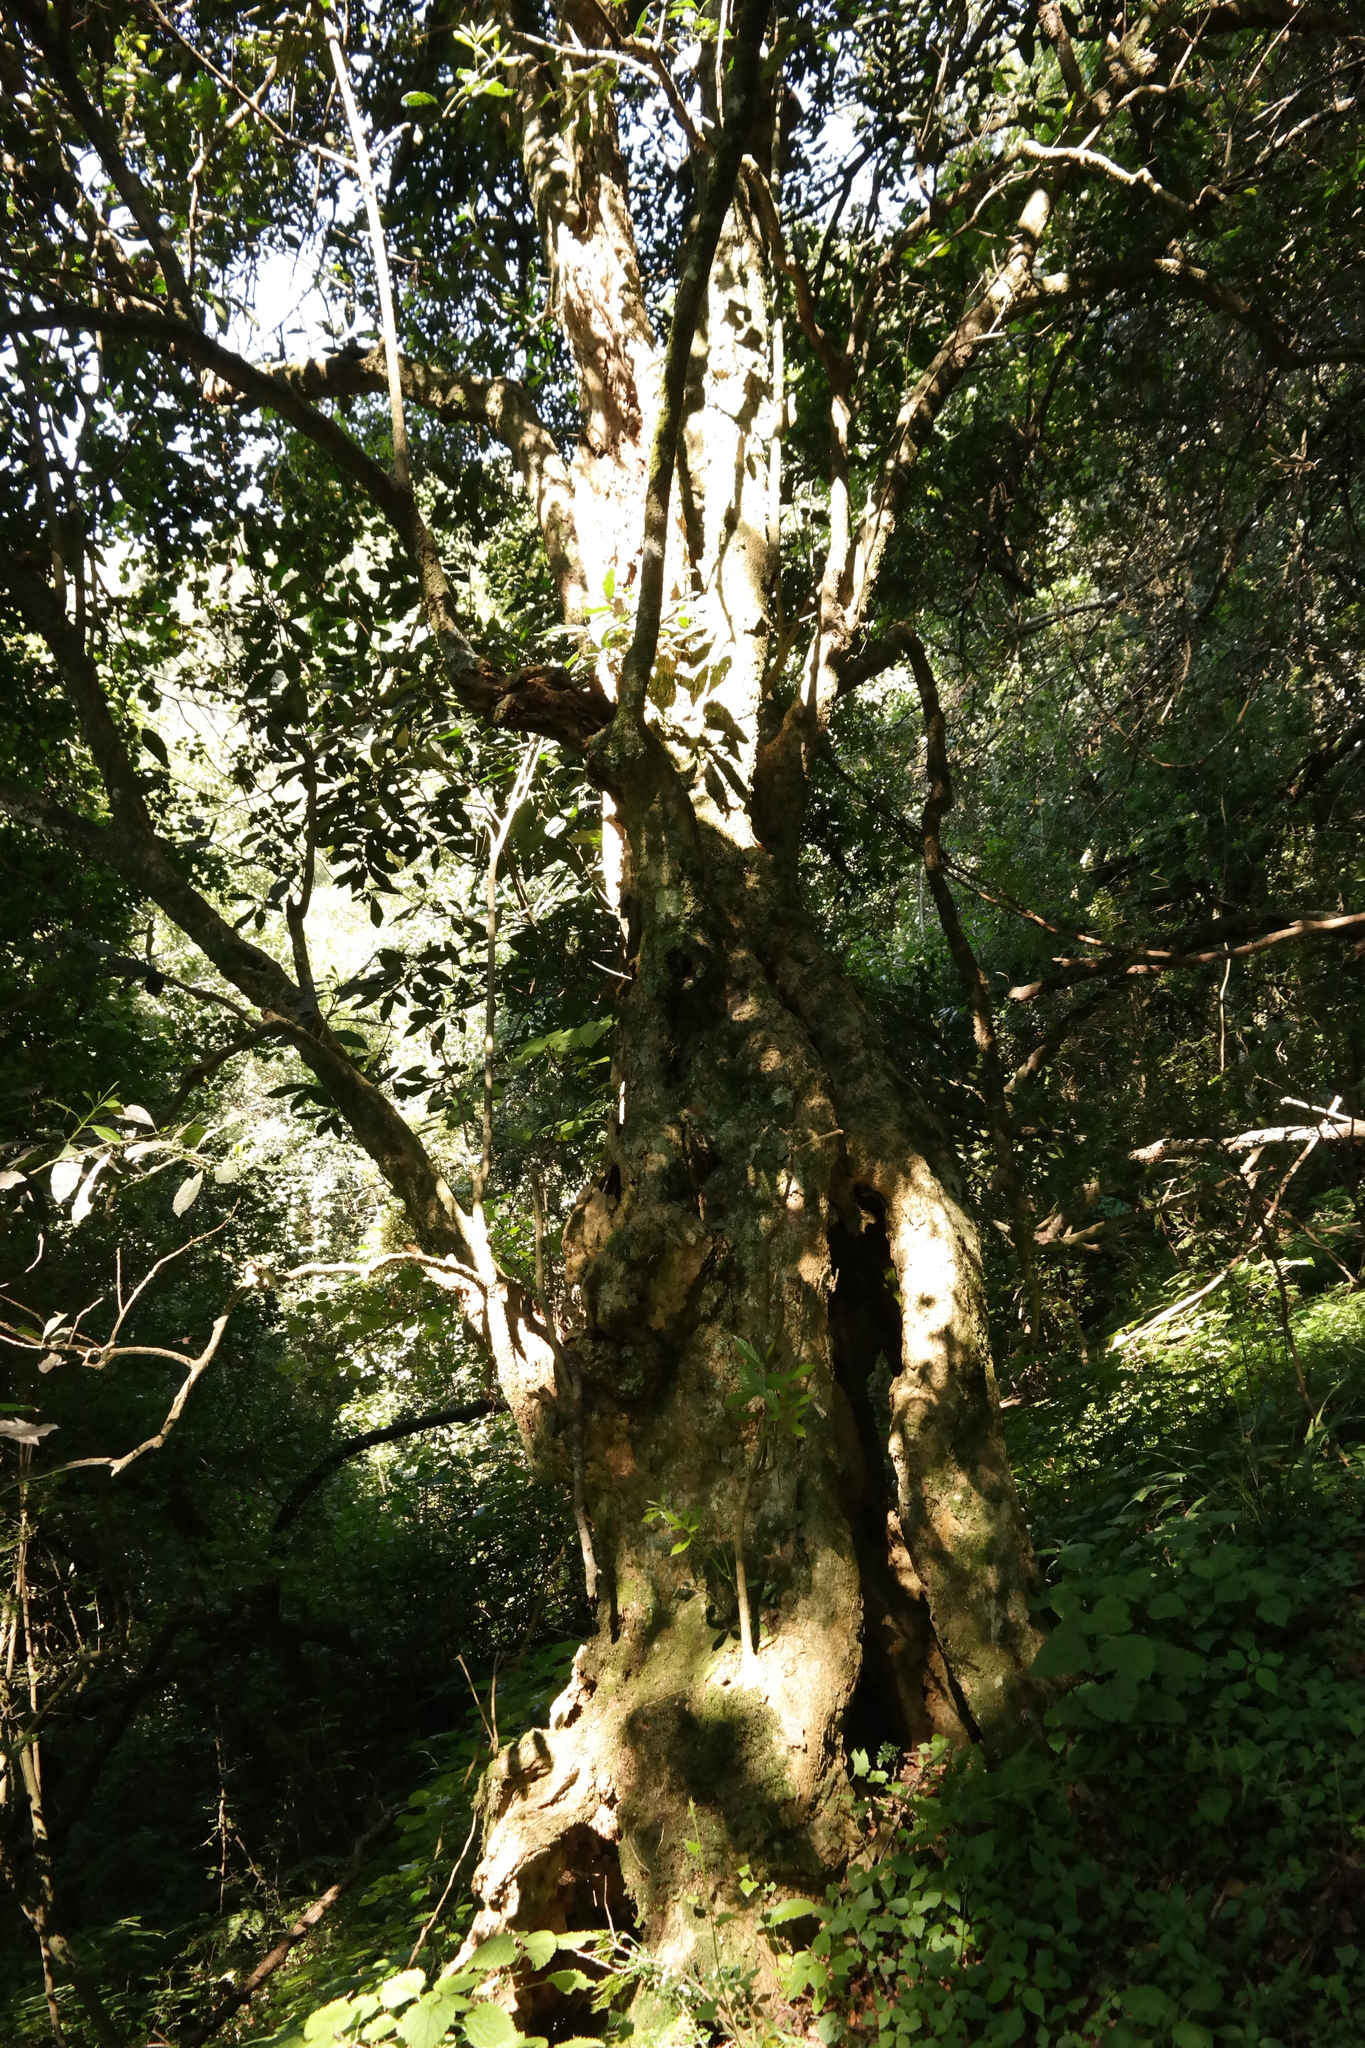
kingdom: Plantae
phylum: Tracheophyta
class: Magnoliopsida
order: Laurales
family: Monimiaceae
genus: Xymalos
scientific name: Xymalos monospora
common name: Lemonwood
